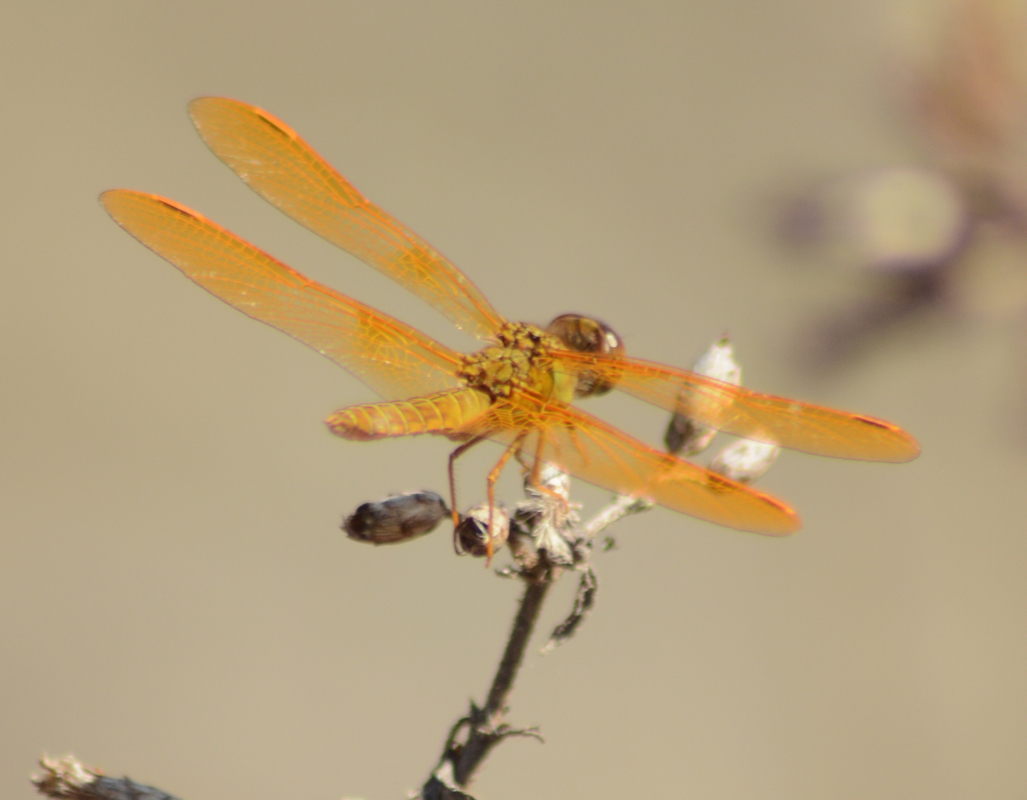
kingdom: Animalia
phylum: Arthropoda
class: Insecta
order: Odonata
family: Libellulidae
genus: Perithemis
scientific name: Perithemis intensa
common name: Mexican amberwing
